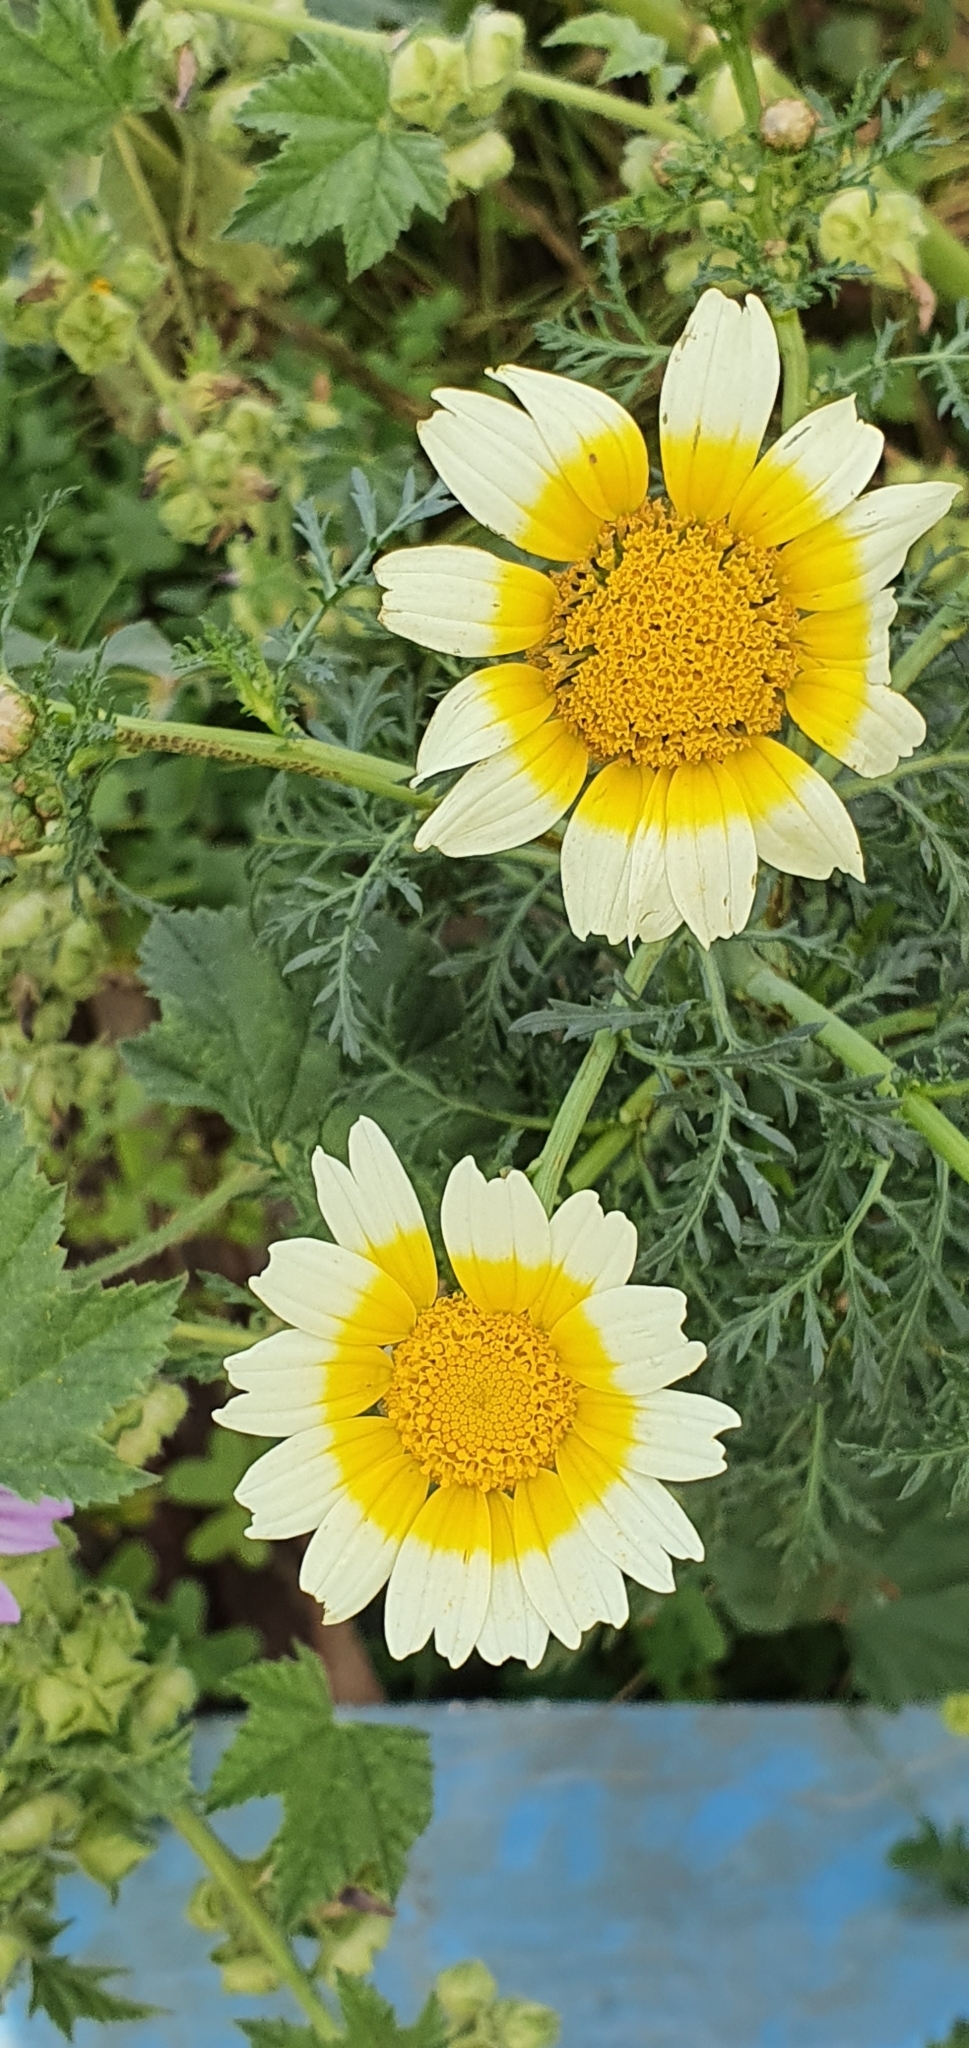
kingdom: Plantae
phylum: Tracheophyta
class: Magnoliopsida
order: Asterales
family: Asteraceae
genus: Glebionis
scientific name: Glebionis coronaria
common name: Crowndaisy
